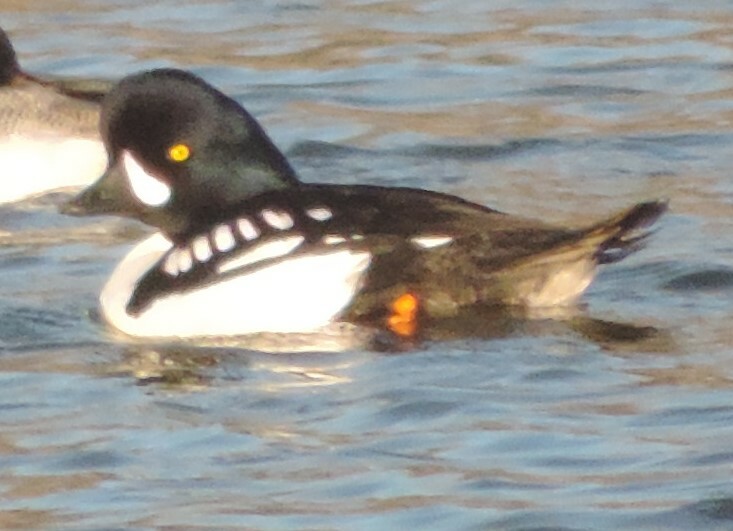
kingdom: Animalia
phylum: Chordata
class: Aves
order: Anseriformes
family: Anatidae
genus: Bucephala
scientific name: Bucephala islandica
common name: Barrow's goldeneye
